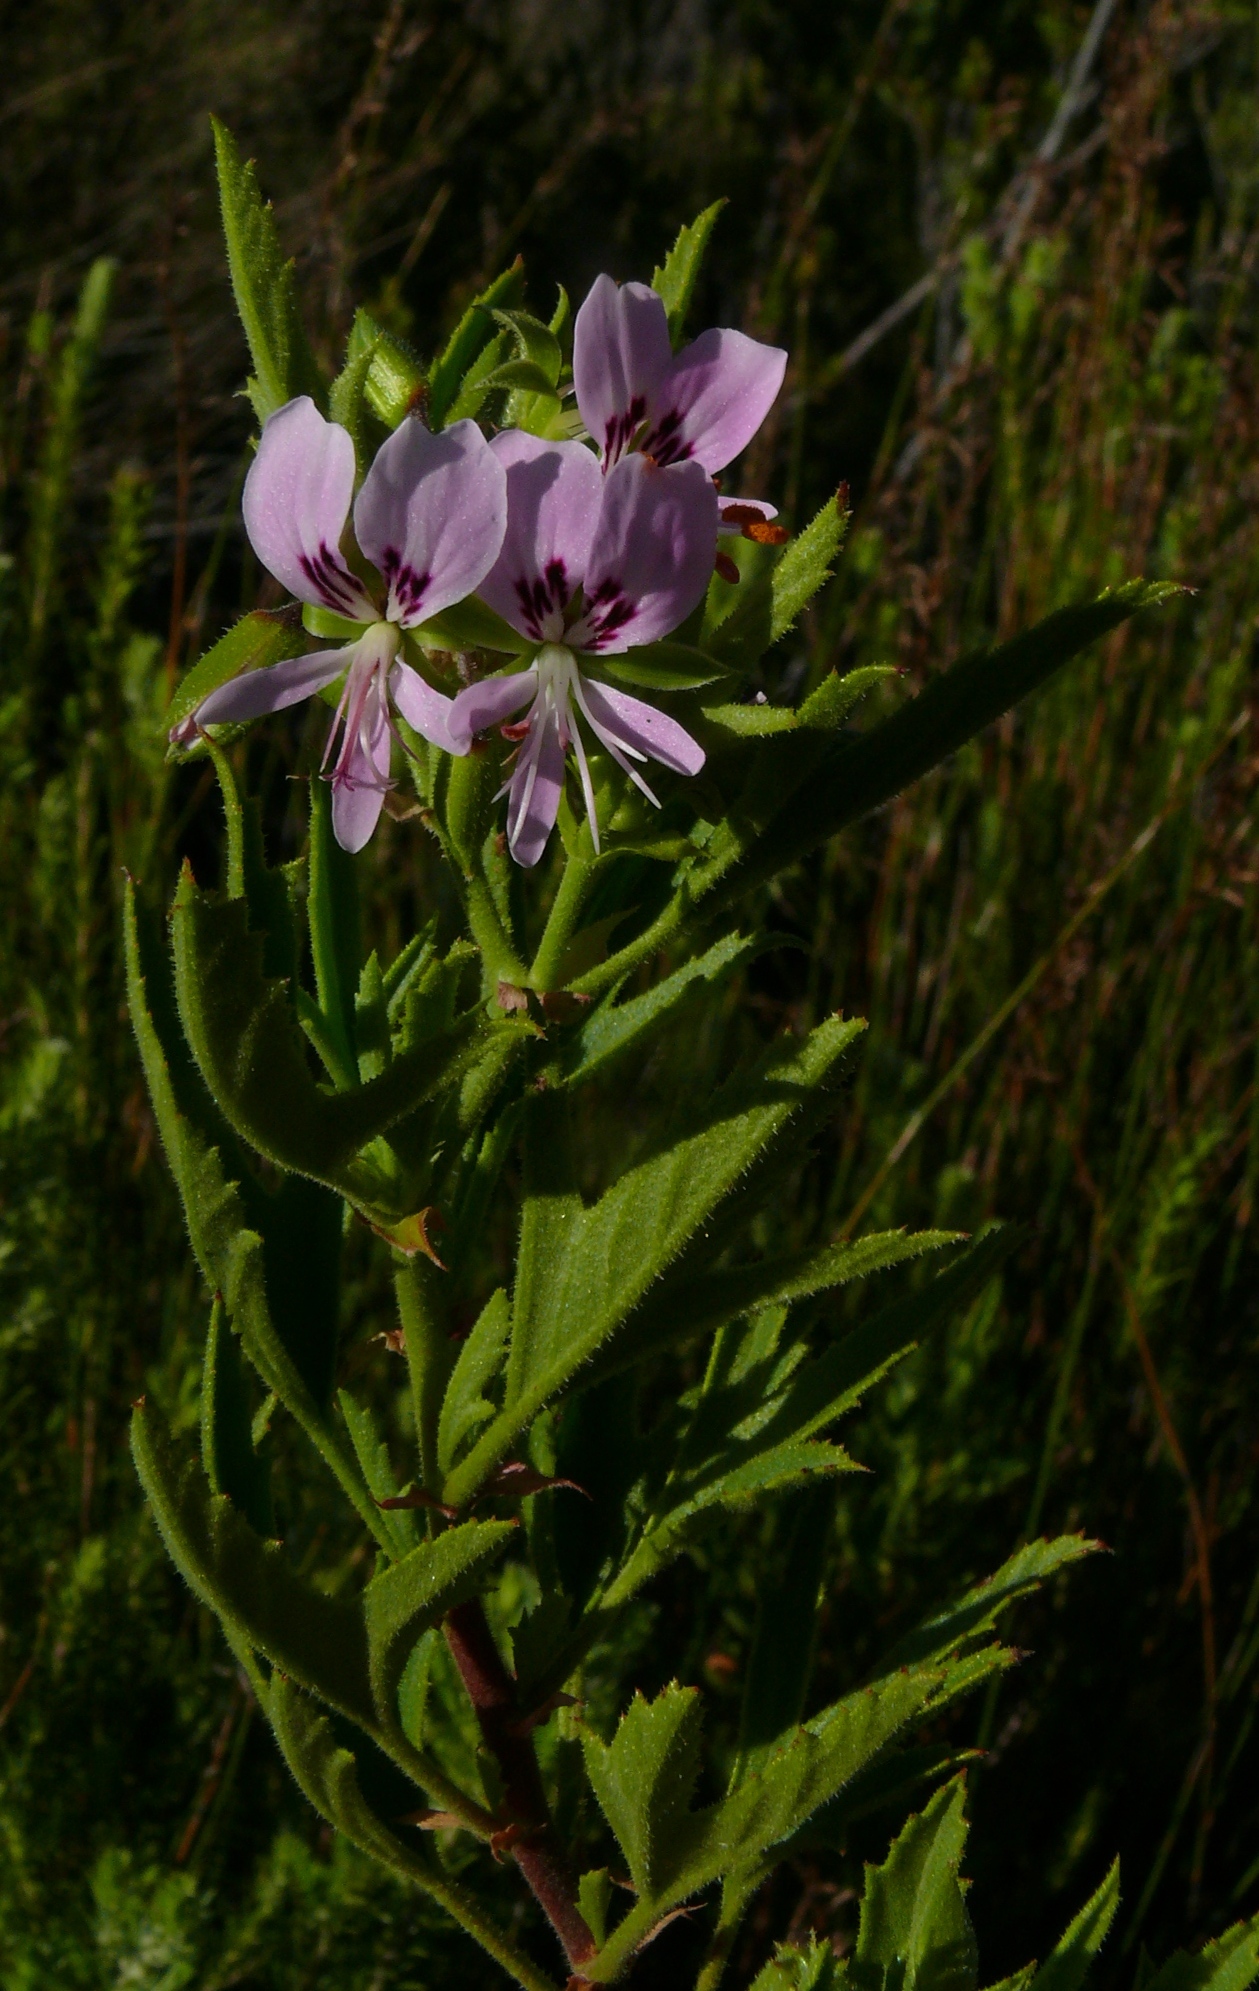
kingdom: Plantae
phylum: Tracheophyta
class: Magnoliopsida
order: Geraniales
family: Geraniaceae
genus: Pelargonium
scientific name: Pelargonium scabrum
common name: Apricot geranium
